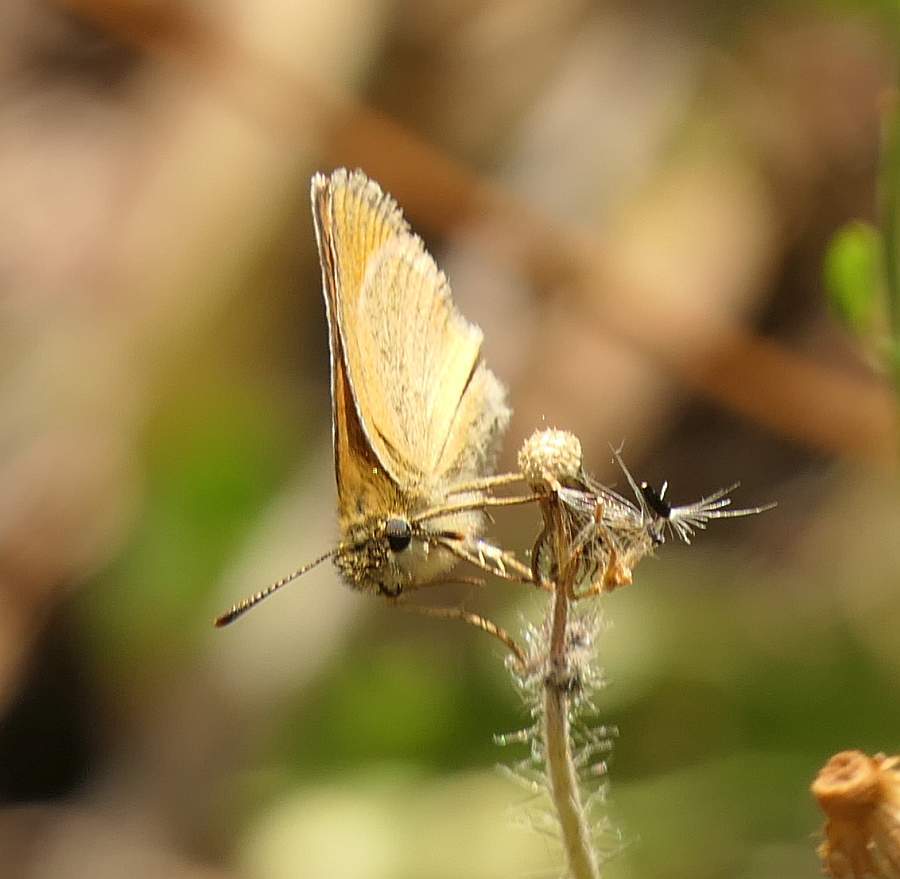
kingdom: Animalia
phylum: Arthropoda
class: Insecta
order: Lepidoptera
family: Hesperiidae
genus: Thymelicus
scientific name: Thymelicus lineola
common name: Essex skipper
